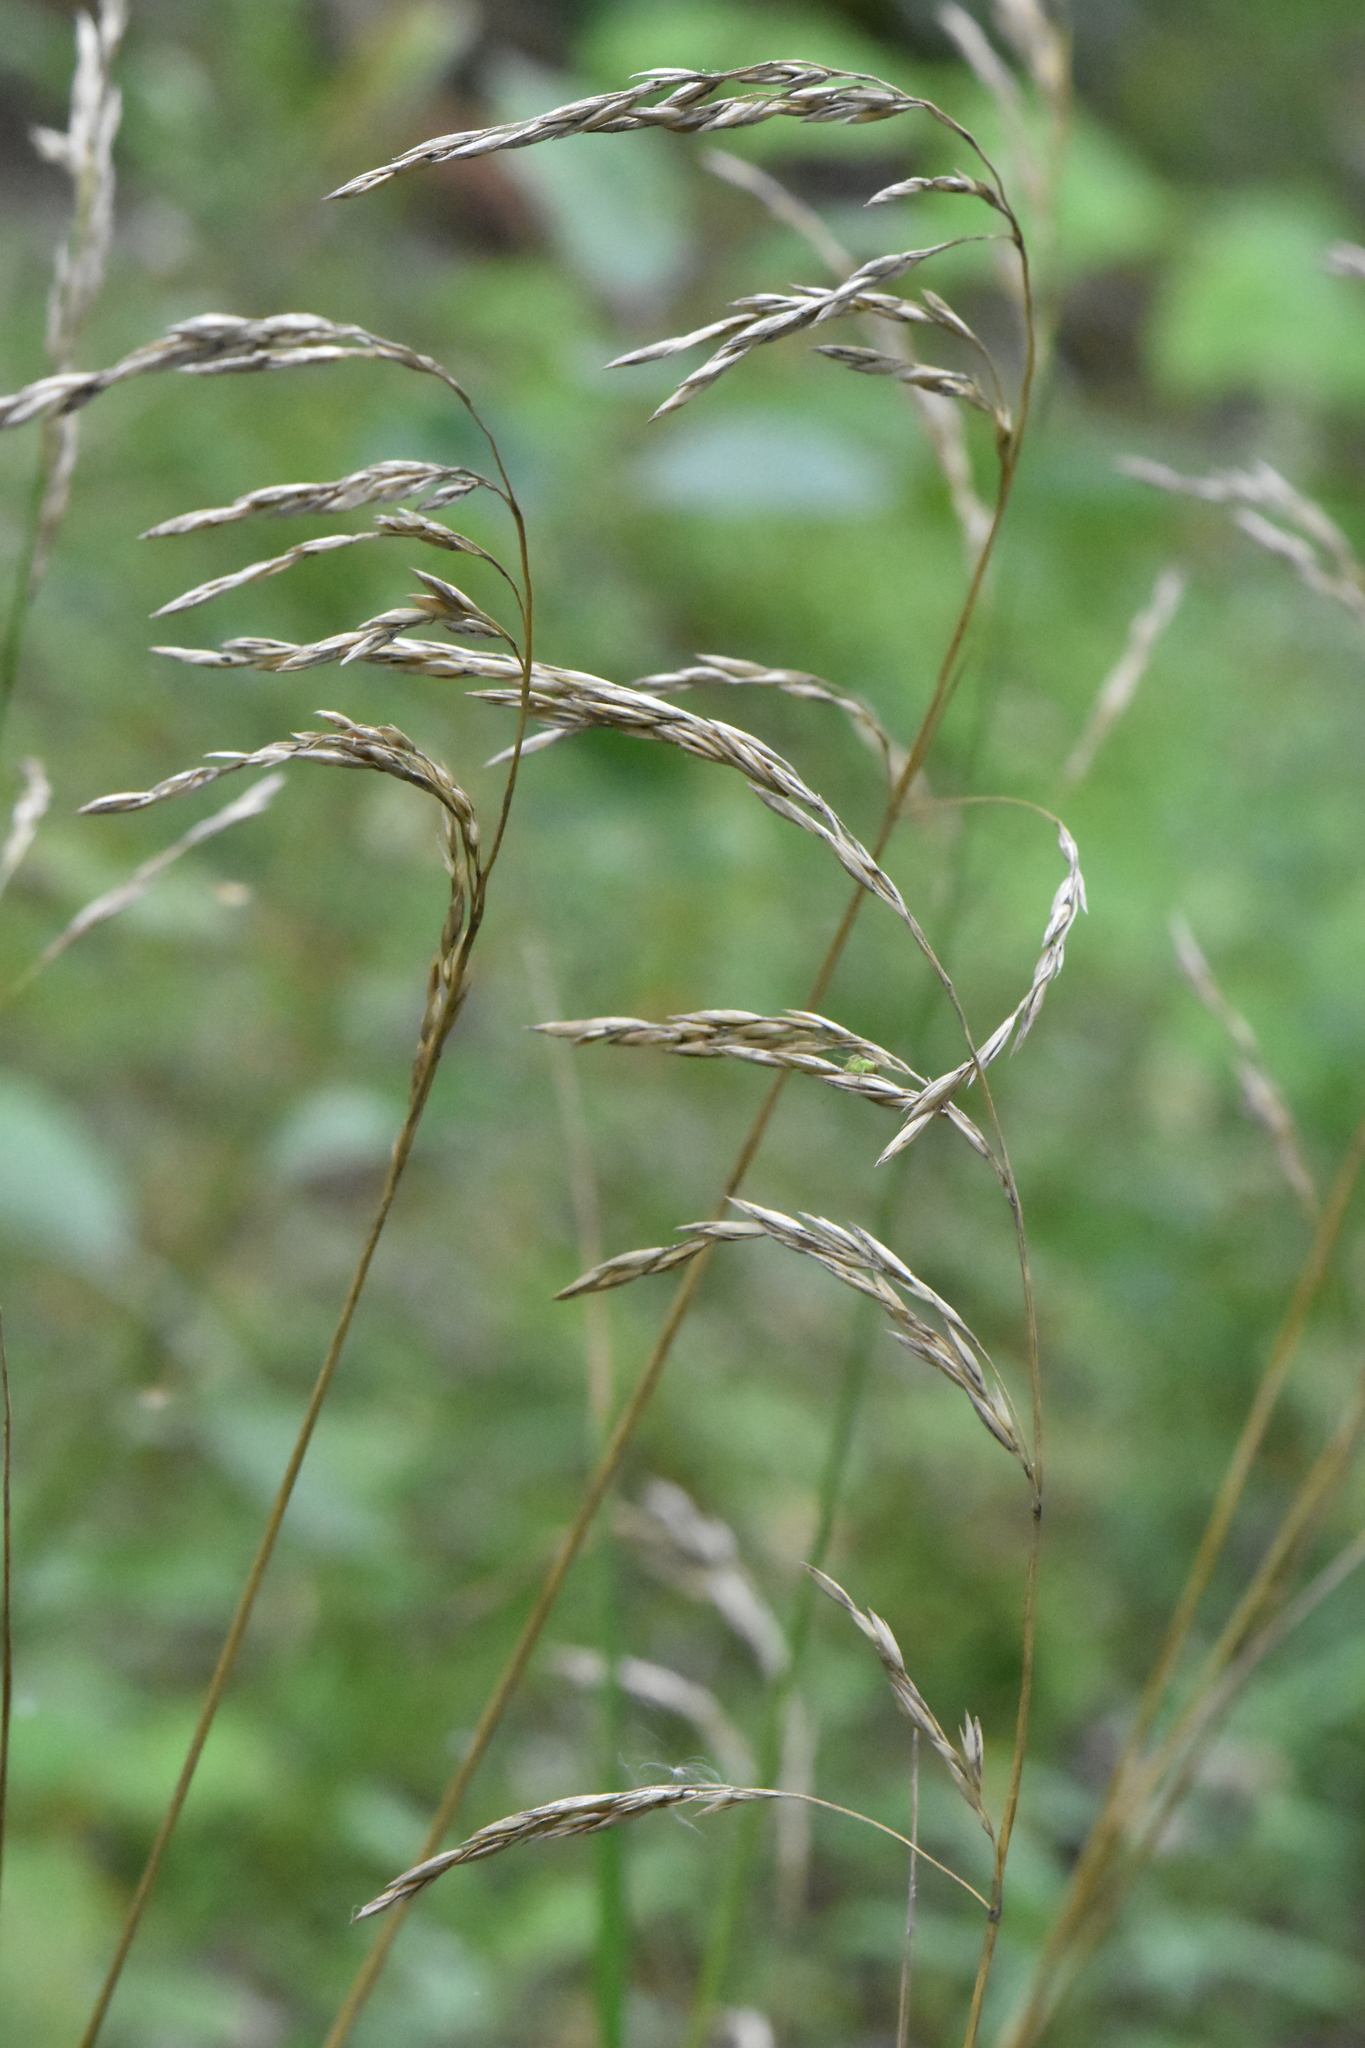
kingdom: Plantae
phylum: Tracheophyta
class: Liliopsida
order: Poales
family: Poaceae
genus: Lolium
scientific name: Lolium arundinaceum
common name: Reed fescue
